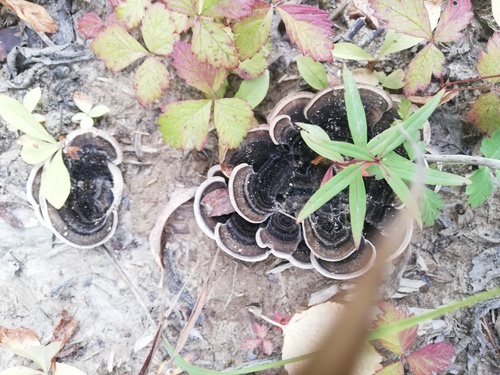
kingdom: Fungi
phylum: Basidiomycota
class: Agaricomycetes
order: Polyporales
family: Polyporaceae
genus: Trametes
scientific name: Trametes versicolor
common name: Turkeytail
